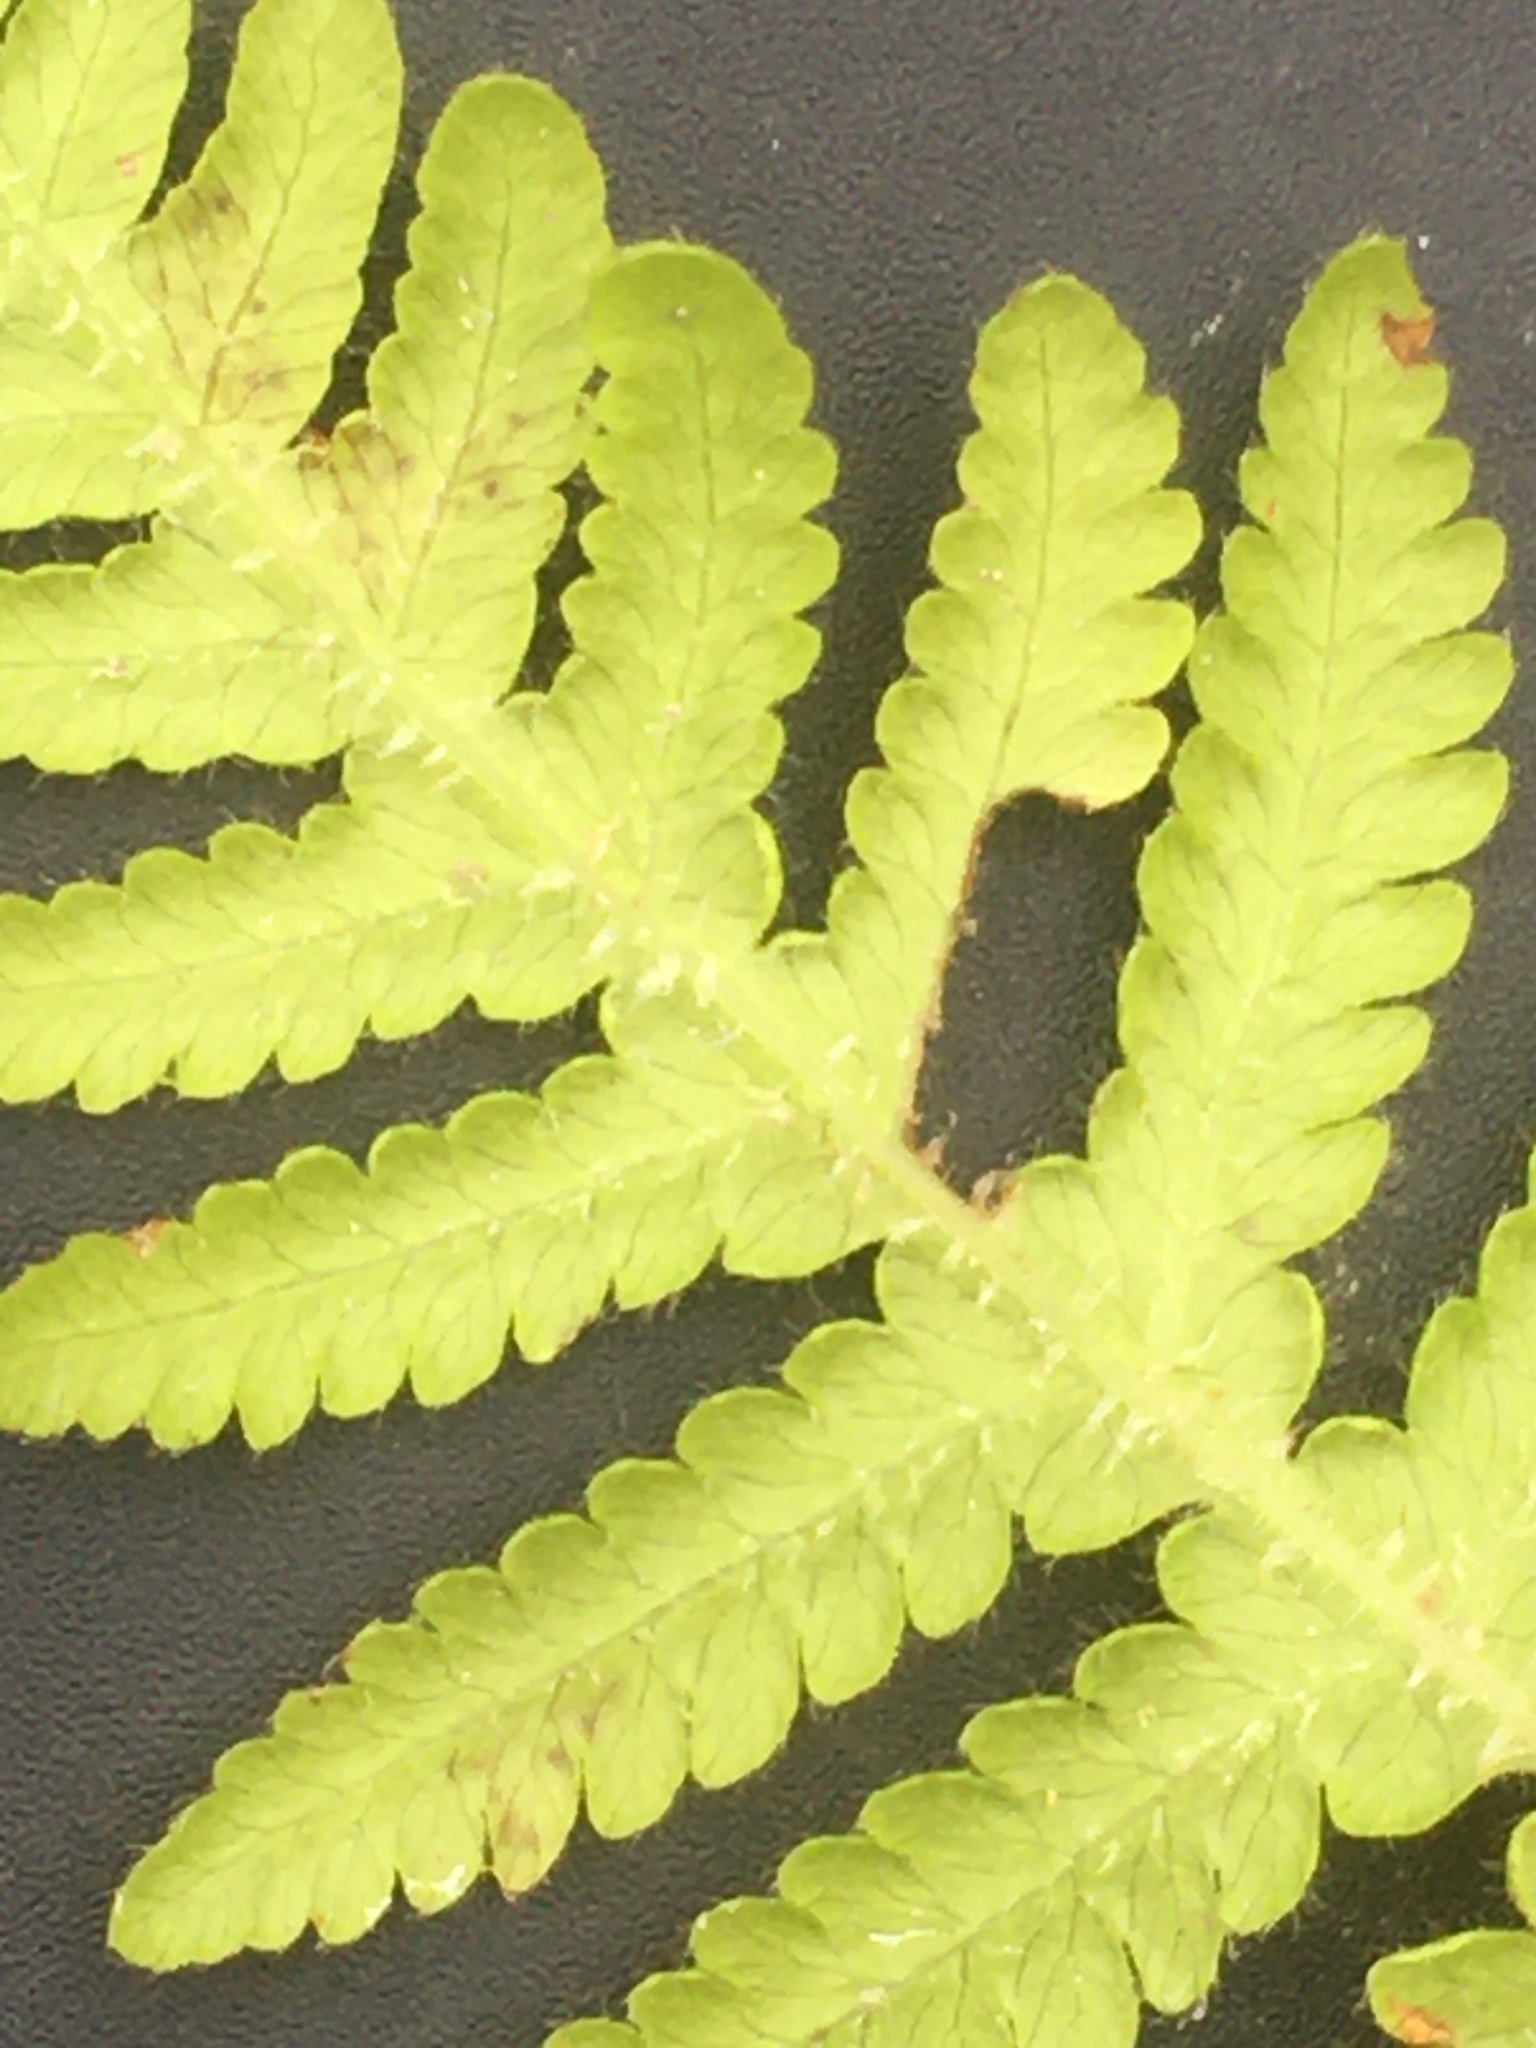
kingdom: Plantae
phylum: Tracheophyta
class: Polypodiopsida
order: Polypodiales
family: Thelypteridaceae
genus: Phegopteris
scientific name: Phegopteris connectilis
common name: Beech fern
